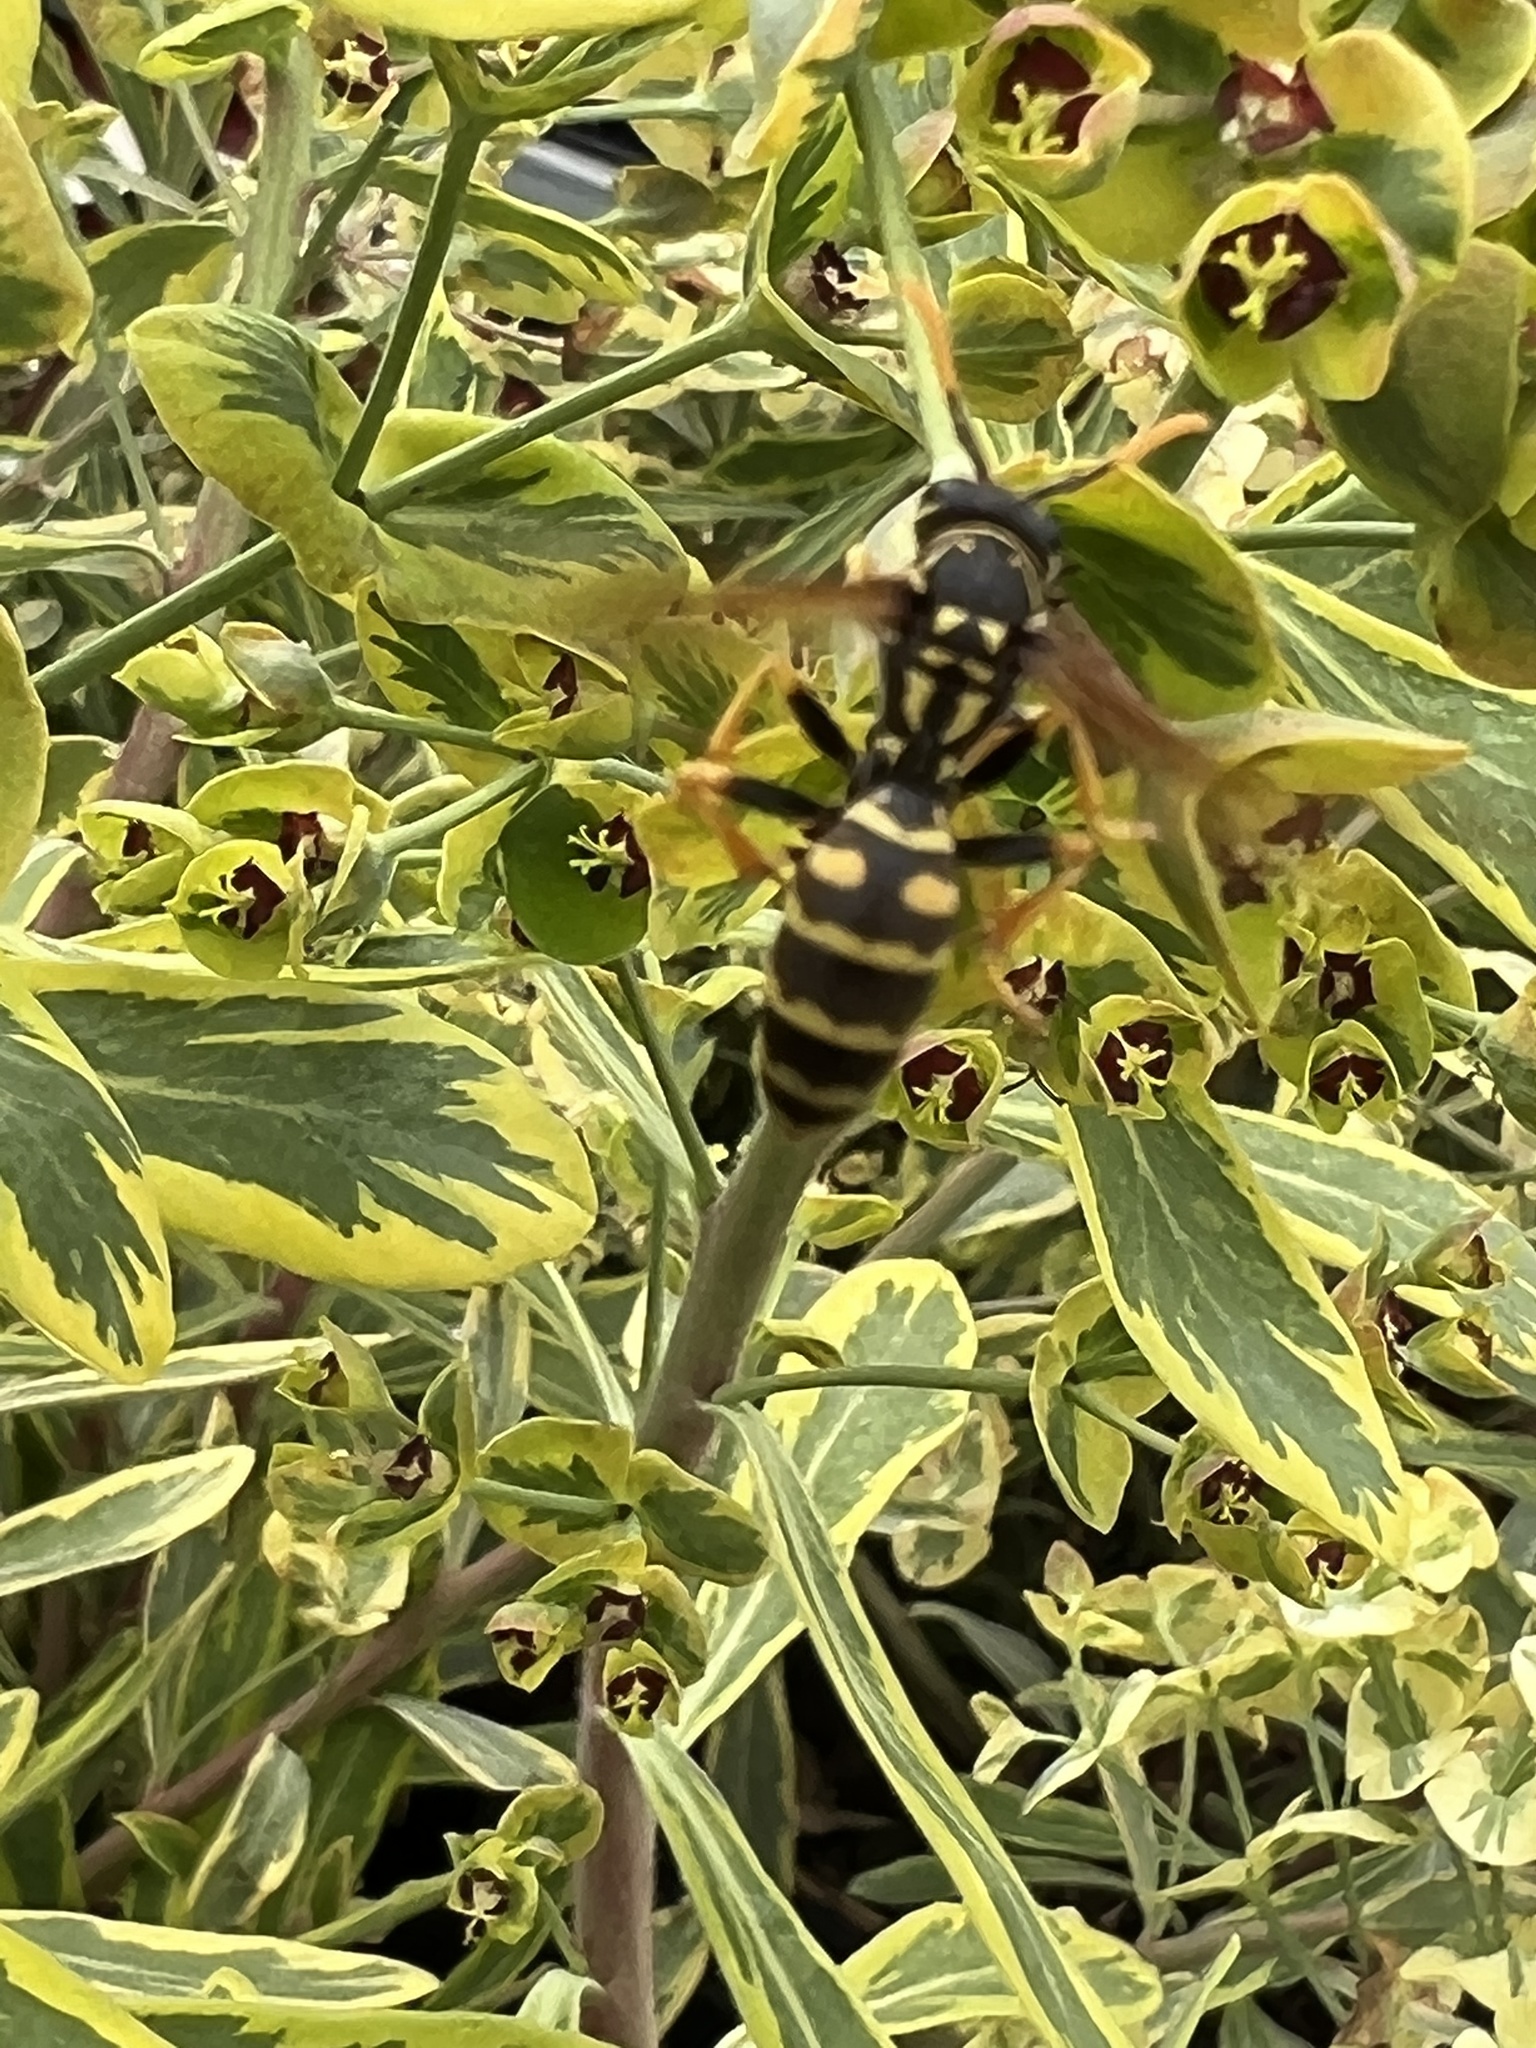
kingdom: Animalia
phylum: Arthropoda
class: Insecta
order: Hymenoptera
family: Eumenidae
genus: Polistes
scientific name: Polistes dominula
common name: Paper wasp
